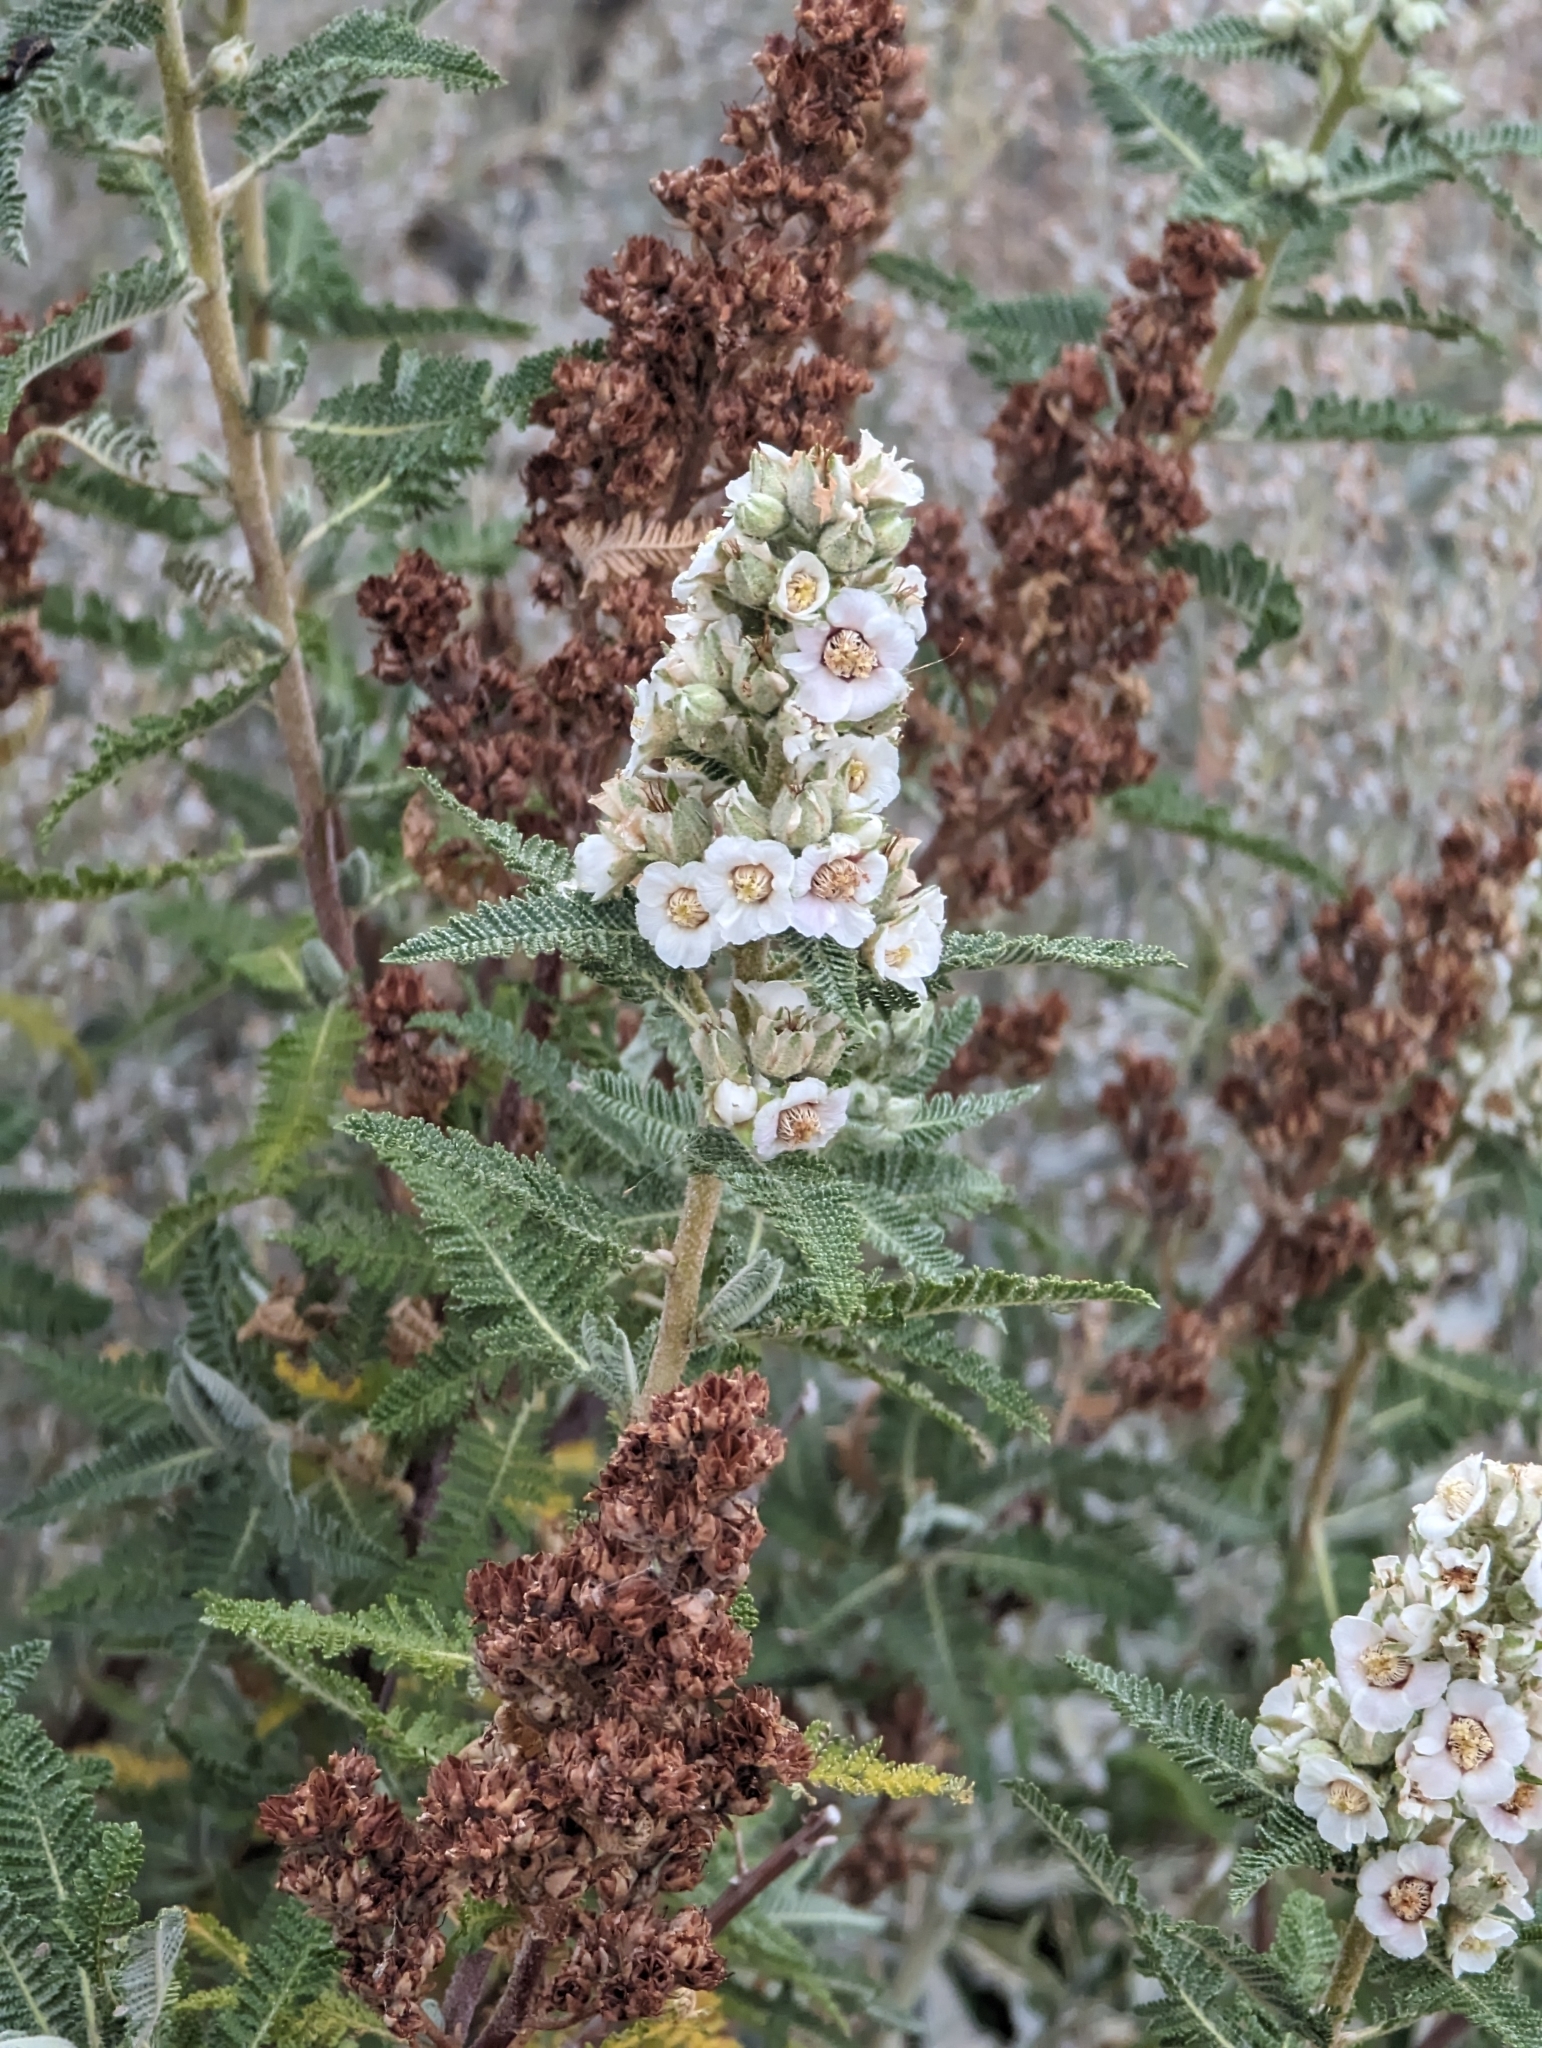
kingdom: Plantae
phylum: Tracheophyta
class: Magnoliopsida
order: Rosales
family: Rosaceae
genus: Chamaebatiaria
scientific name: Chamaebatiaria millefolium
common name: Fernbush
